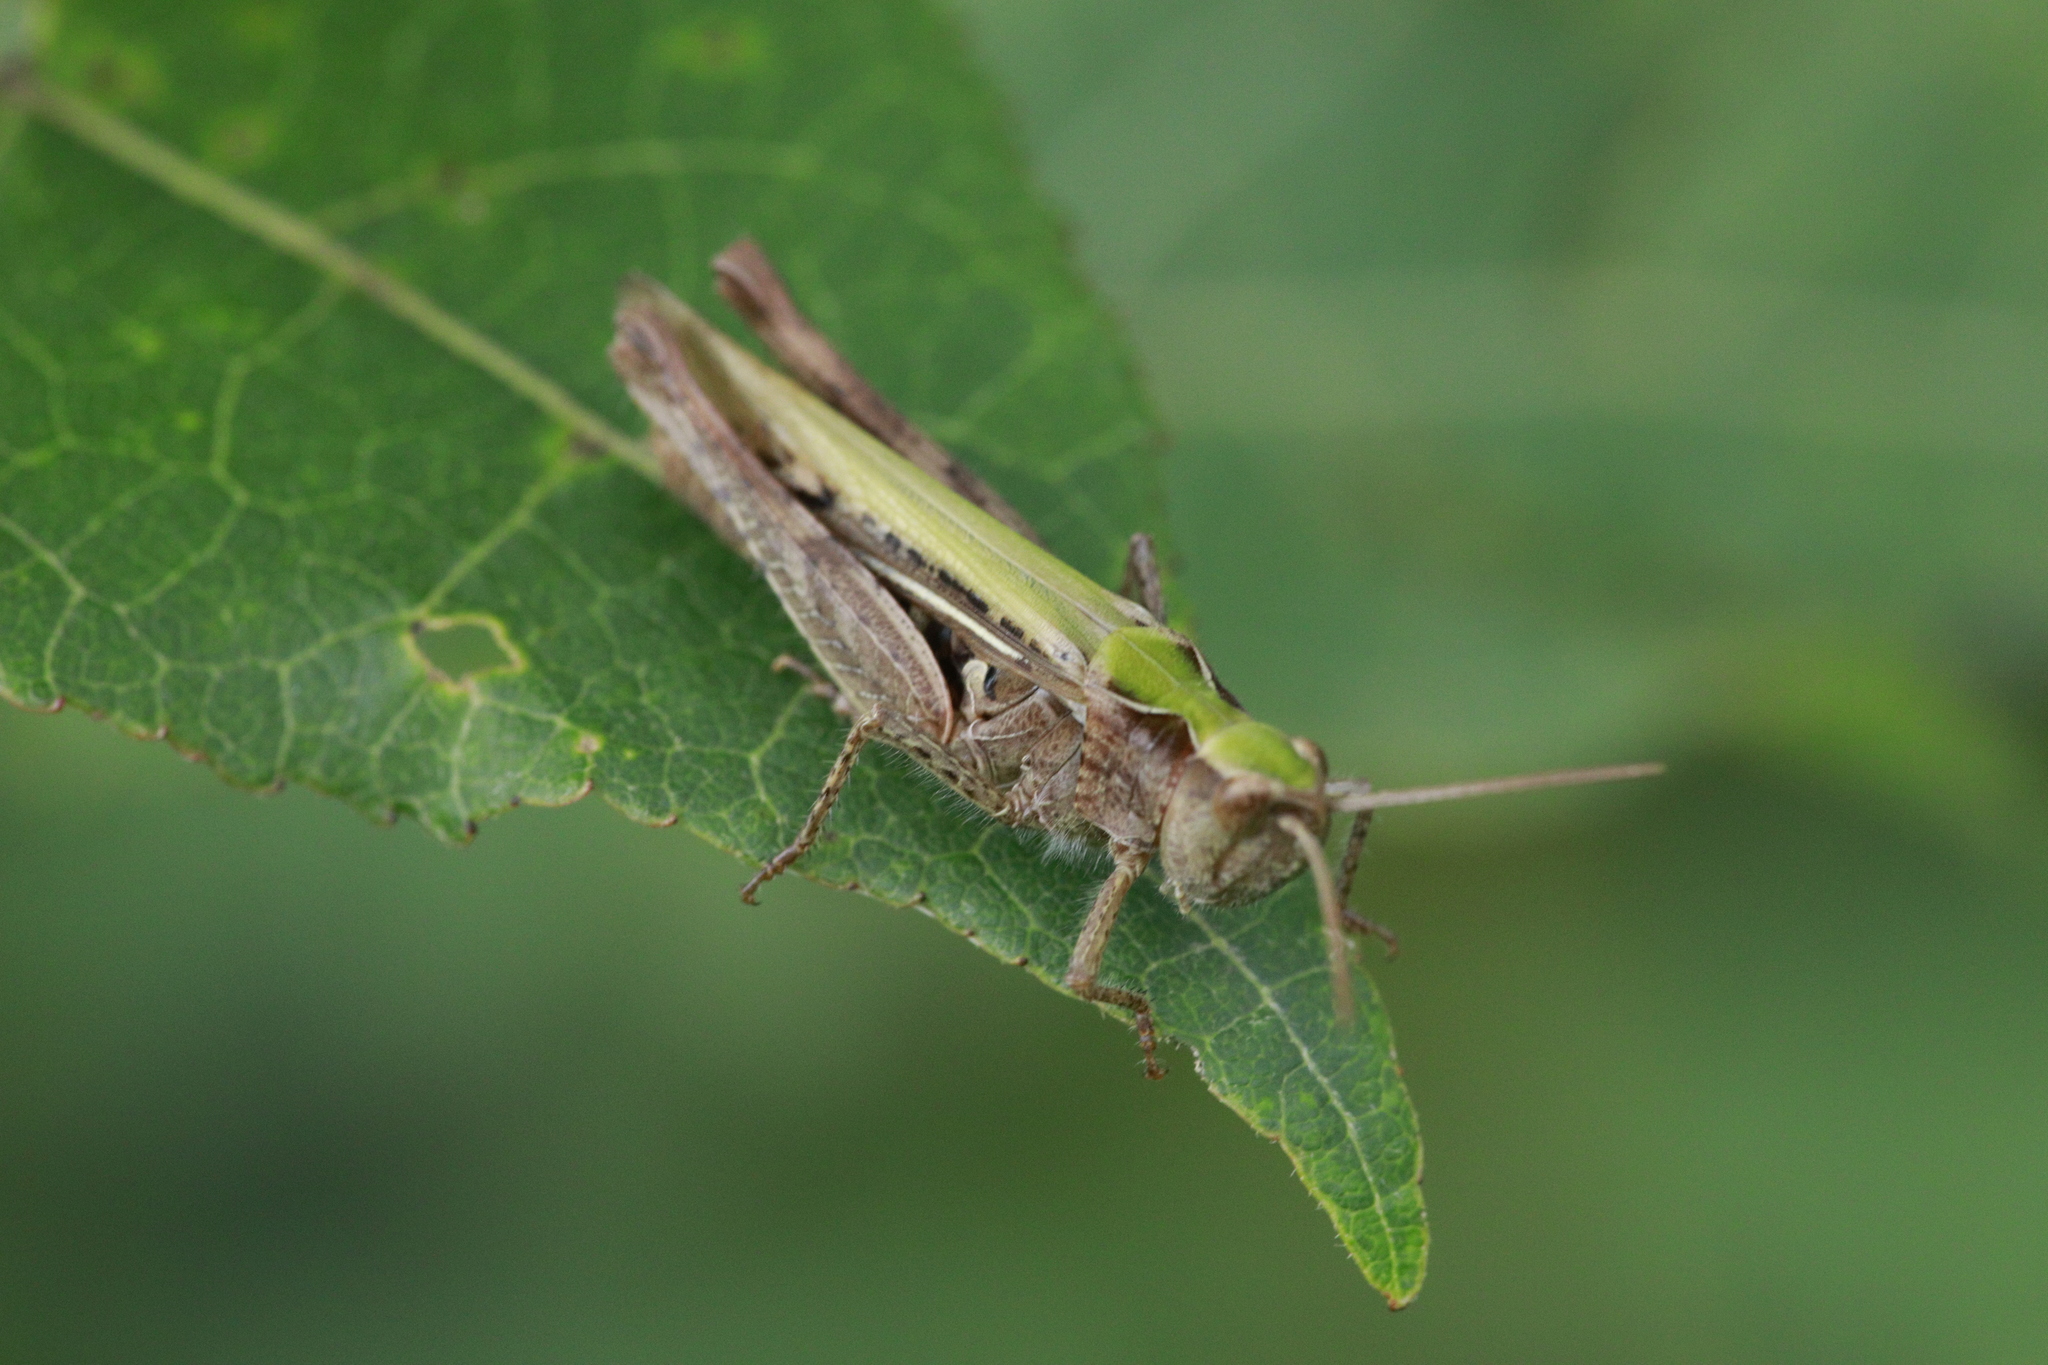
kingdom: Animalia
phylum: Arthropoda
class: Insecta
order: Orthoptera
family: Acrididae
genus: Chorthippus
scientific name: Chorthippus brunneus
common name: Field grasshopper
